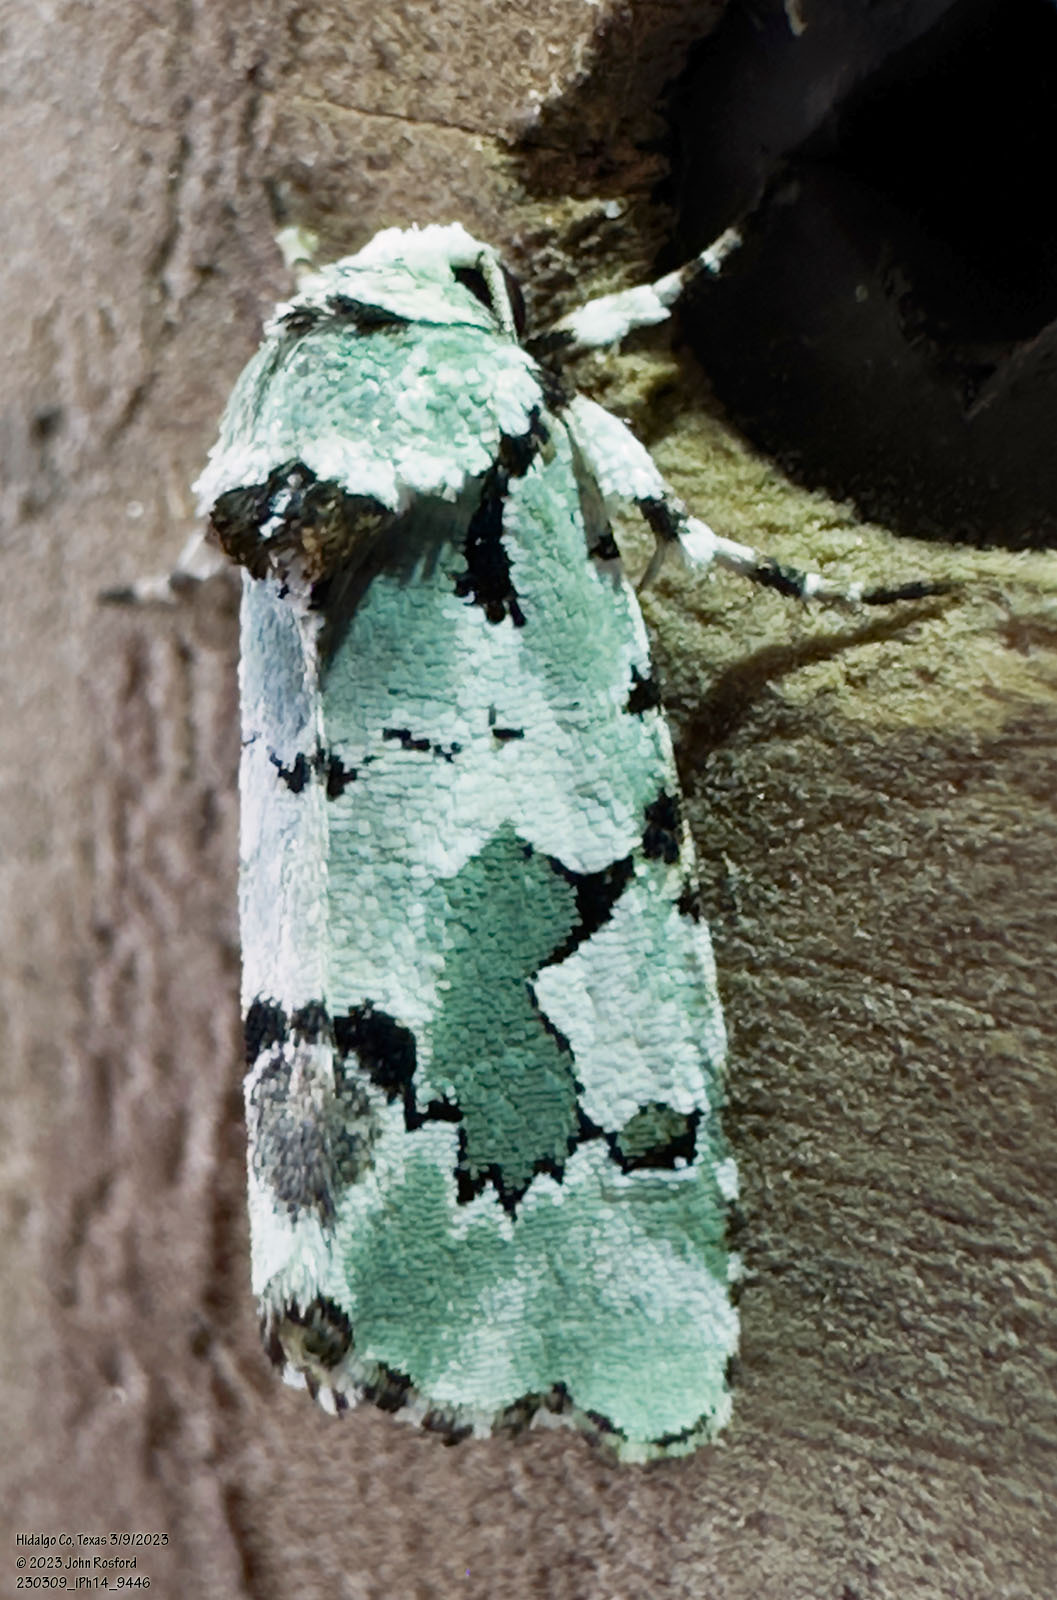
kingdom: Animalia
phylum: Arthropoda
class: Insecta
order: Lepidoptera
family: Noctuidae
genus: Emarginea
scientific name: Emarginea percara
